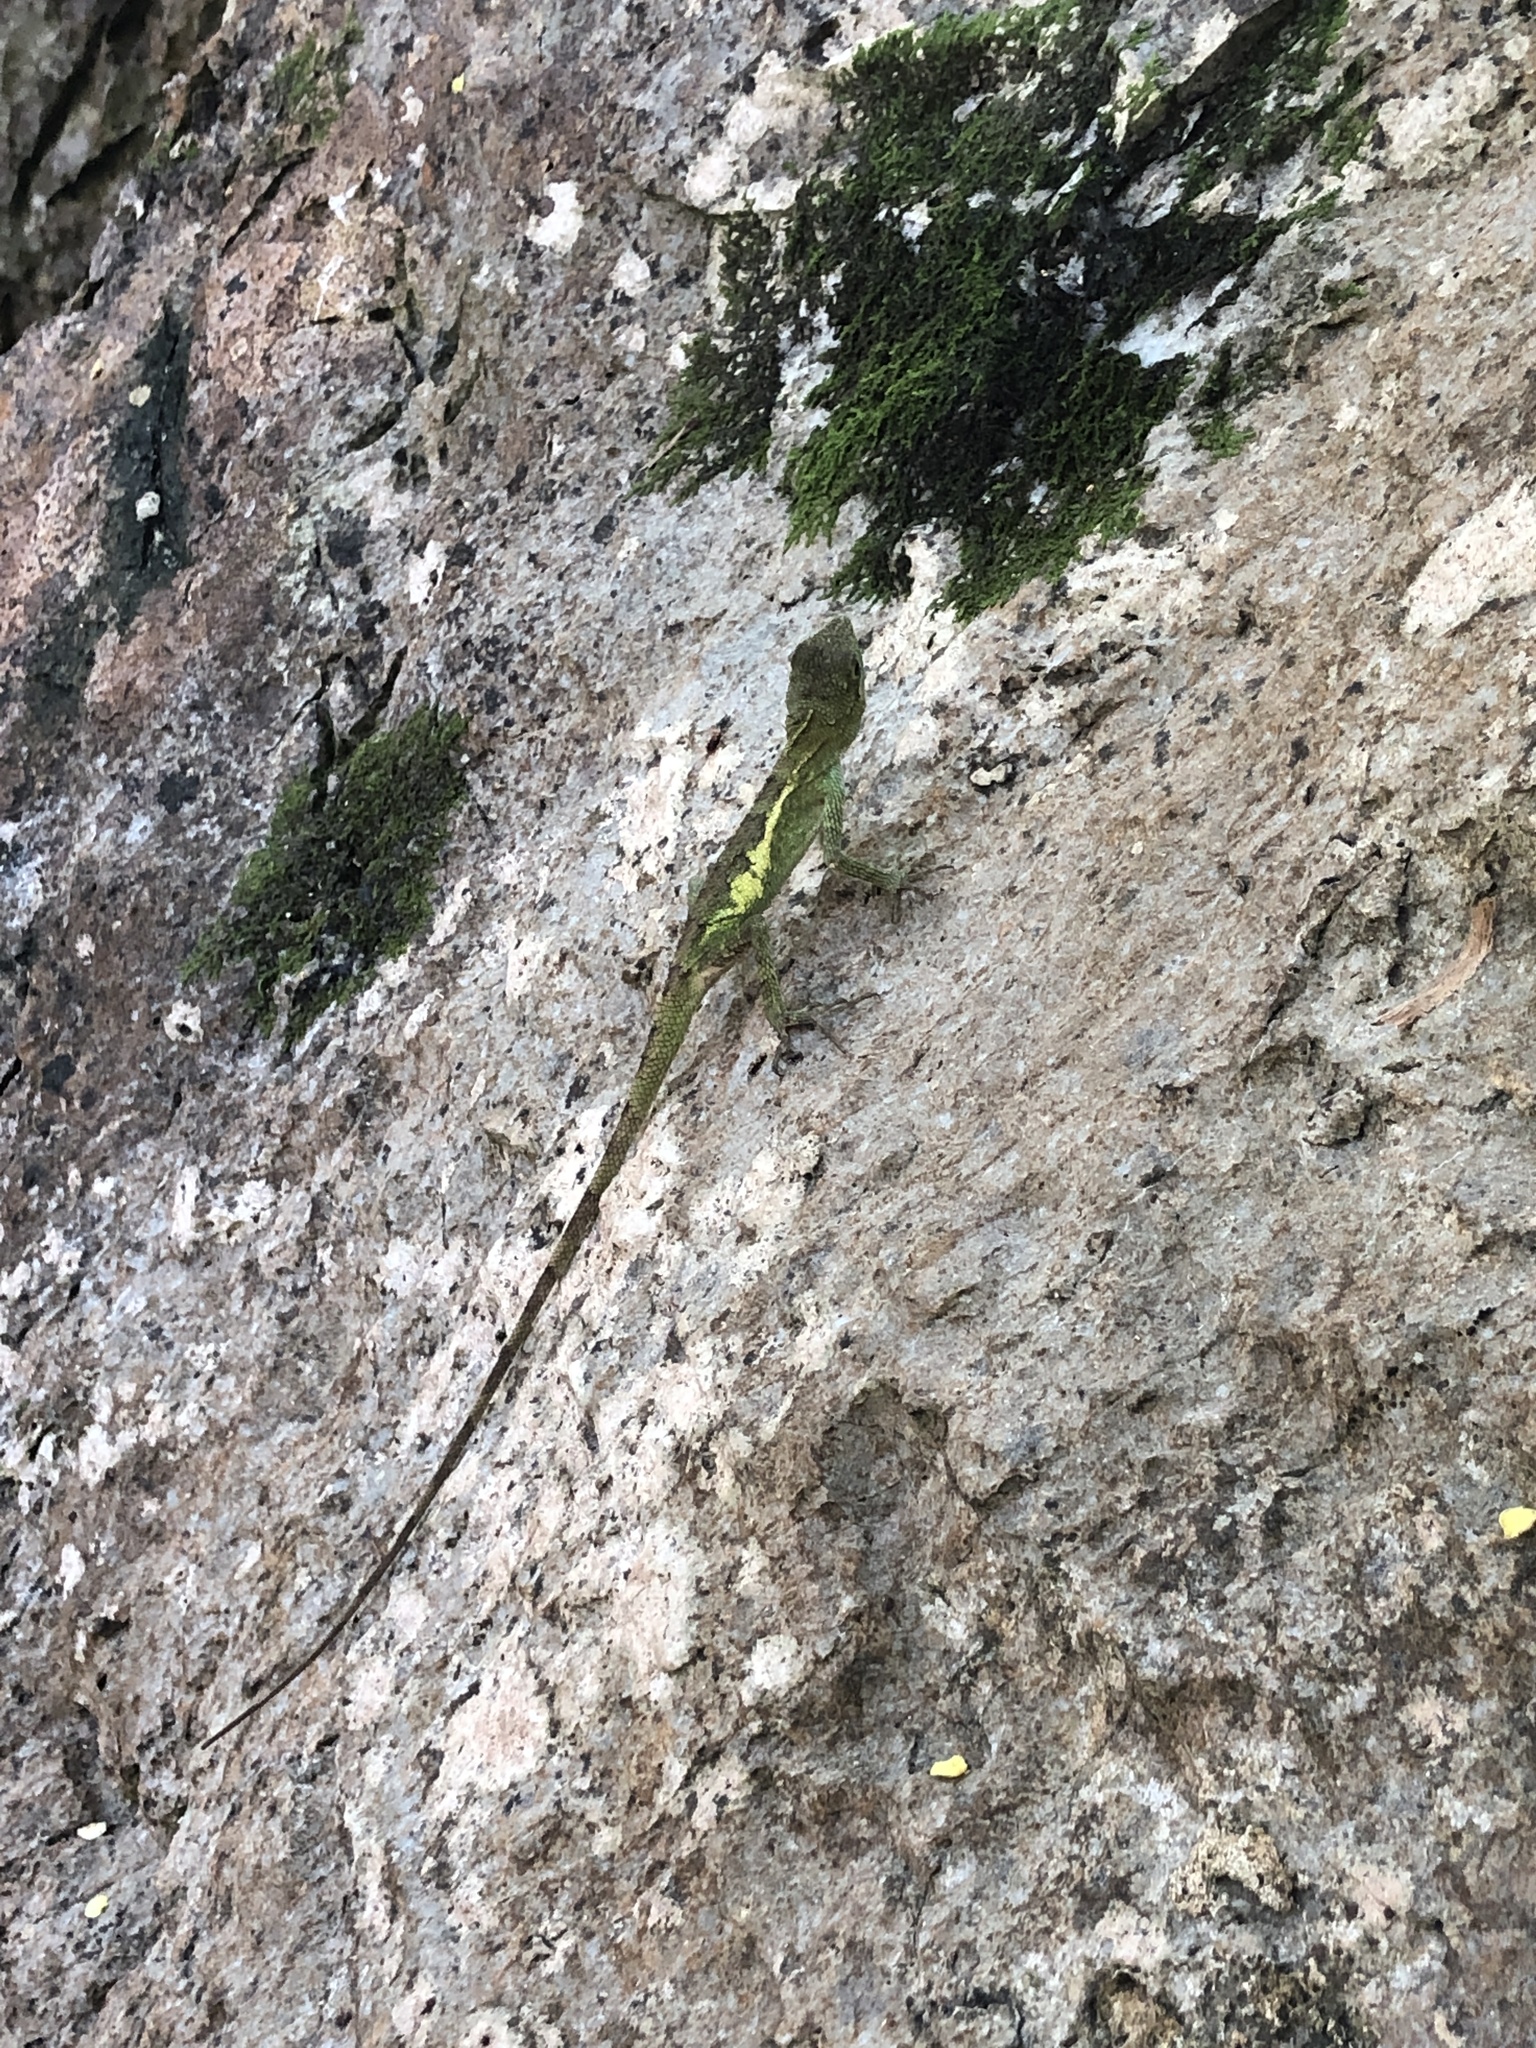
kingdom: Fungi
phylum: Basidiomycota
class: Agaricomycetes
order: Boletales
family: Diplocystidiaceae
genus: Diploderma
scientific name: Diploderma polygonatum
